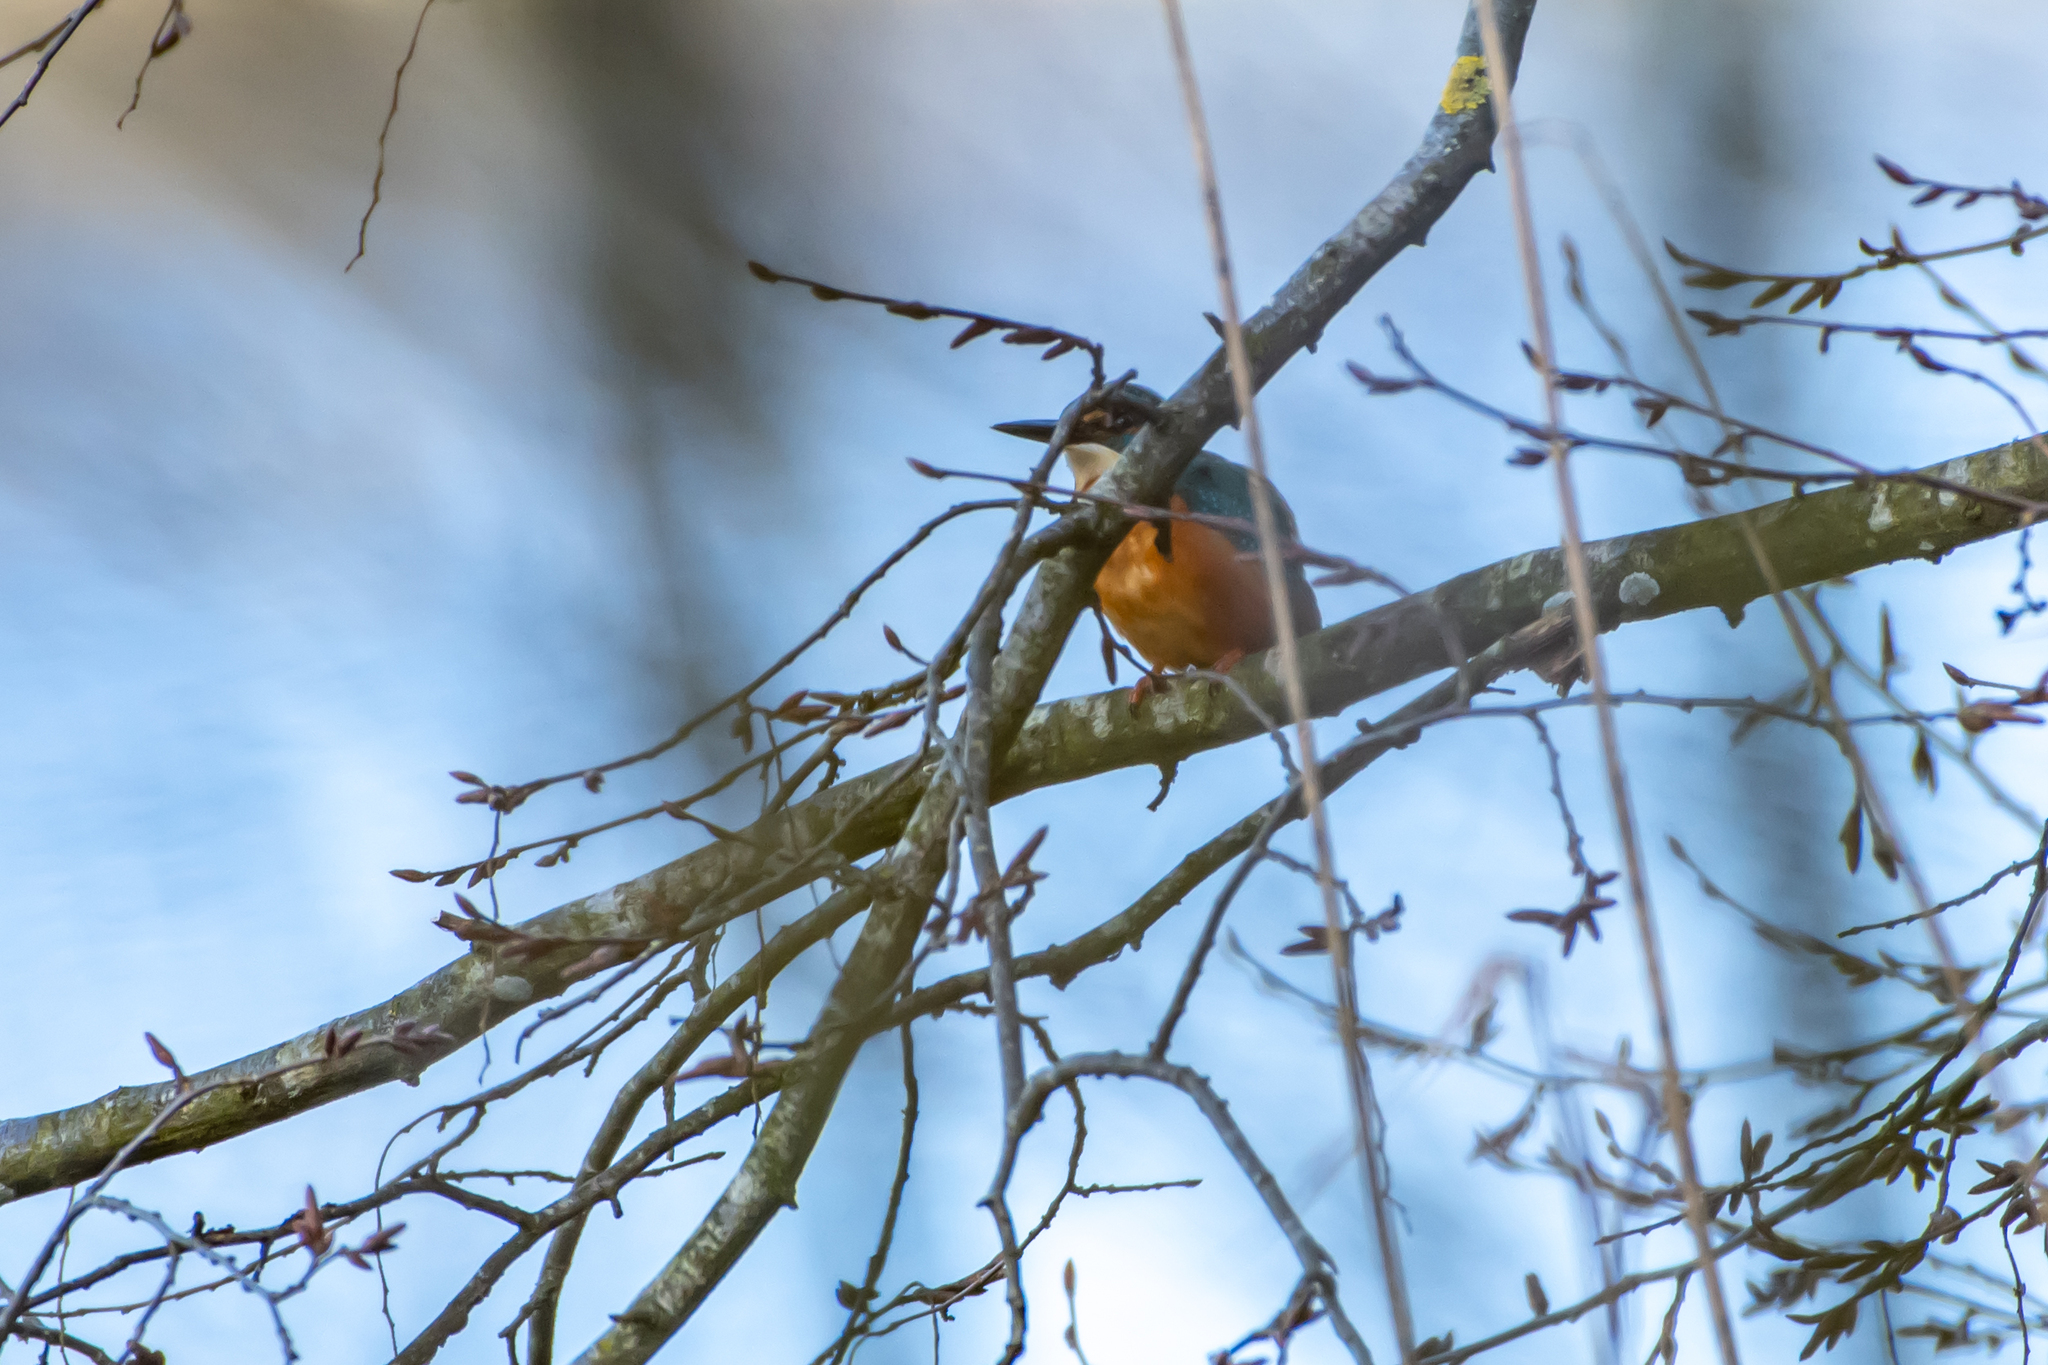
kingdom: Animalia
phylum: Chordata
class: Aves
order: Coraciiformes
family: Alcedinidae
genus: Alcedo
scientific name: Alcedo atthis
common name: Common kingfisher
